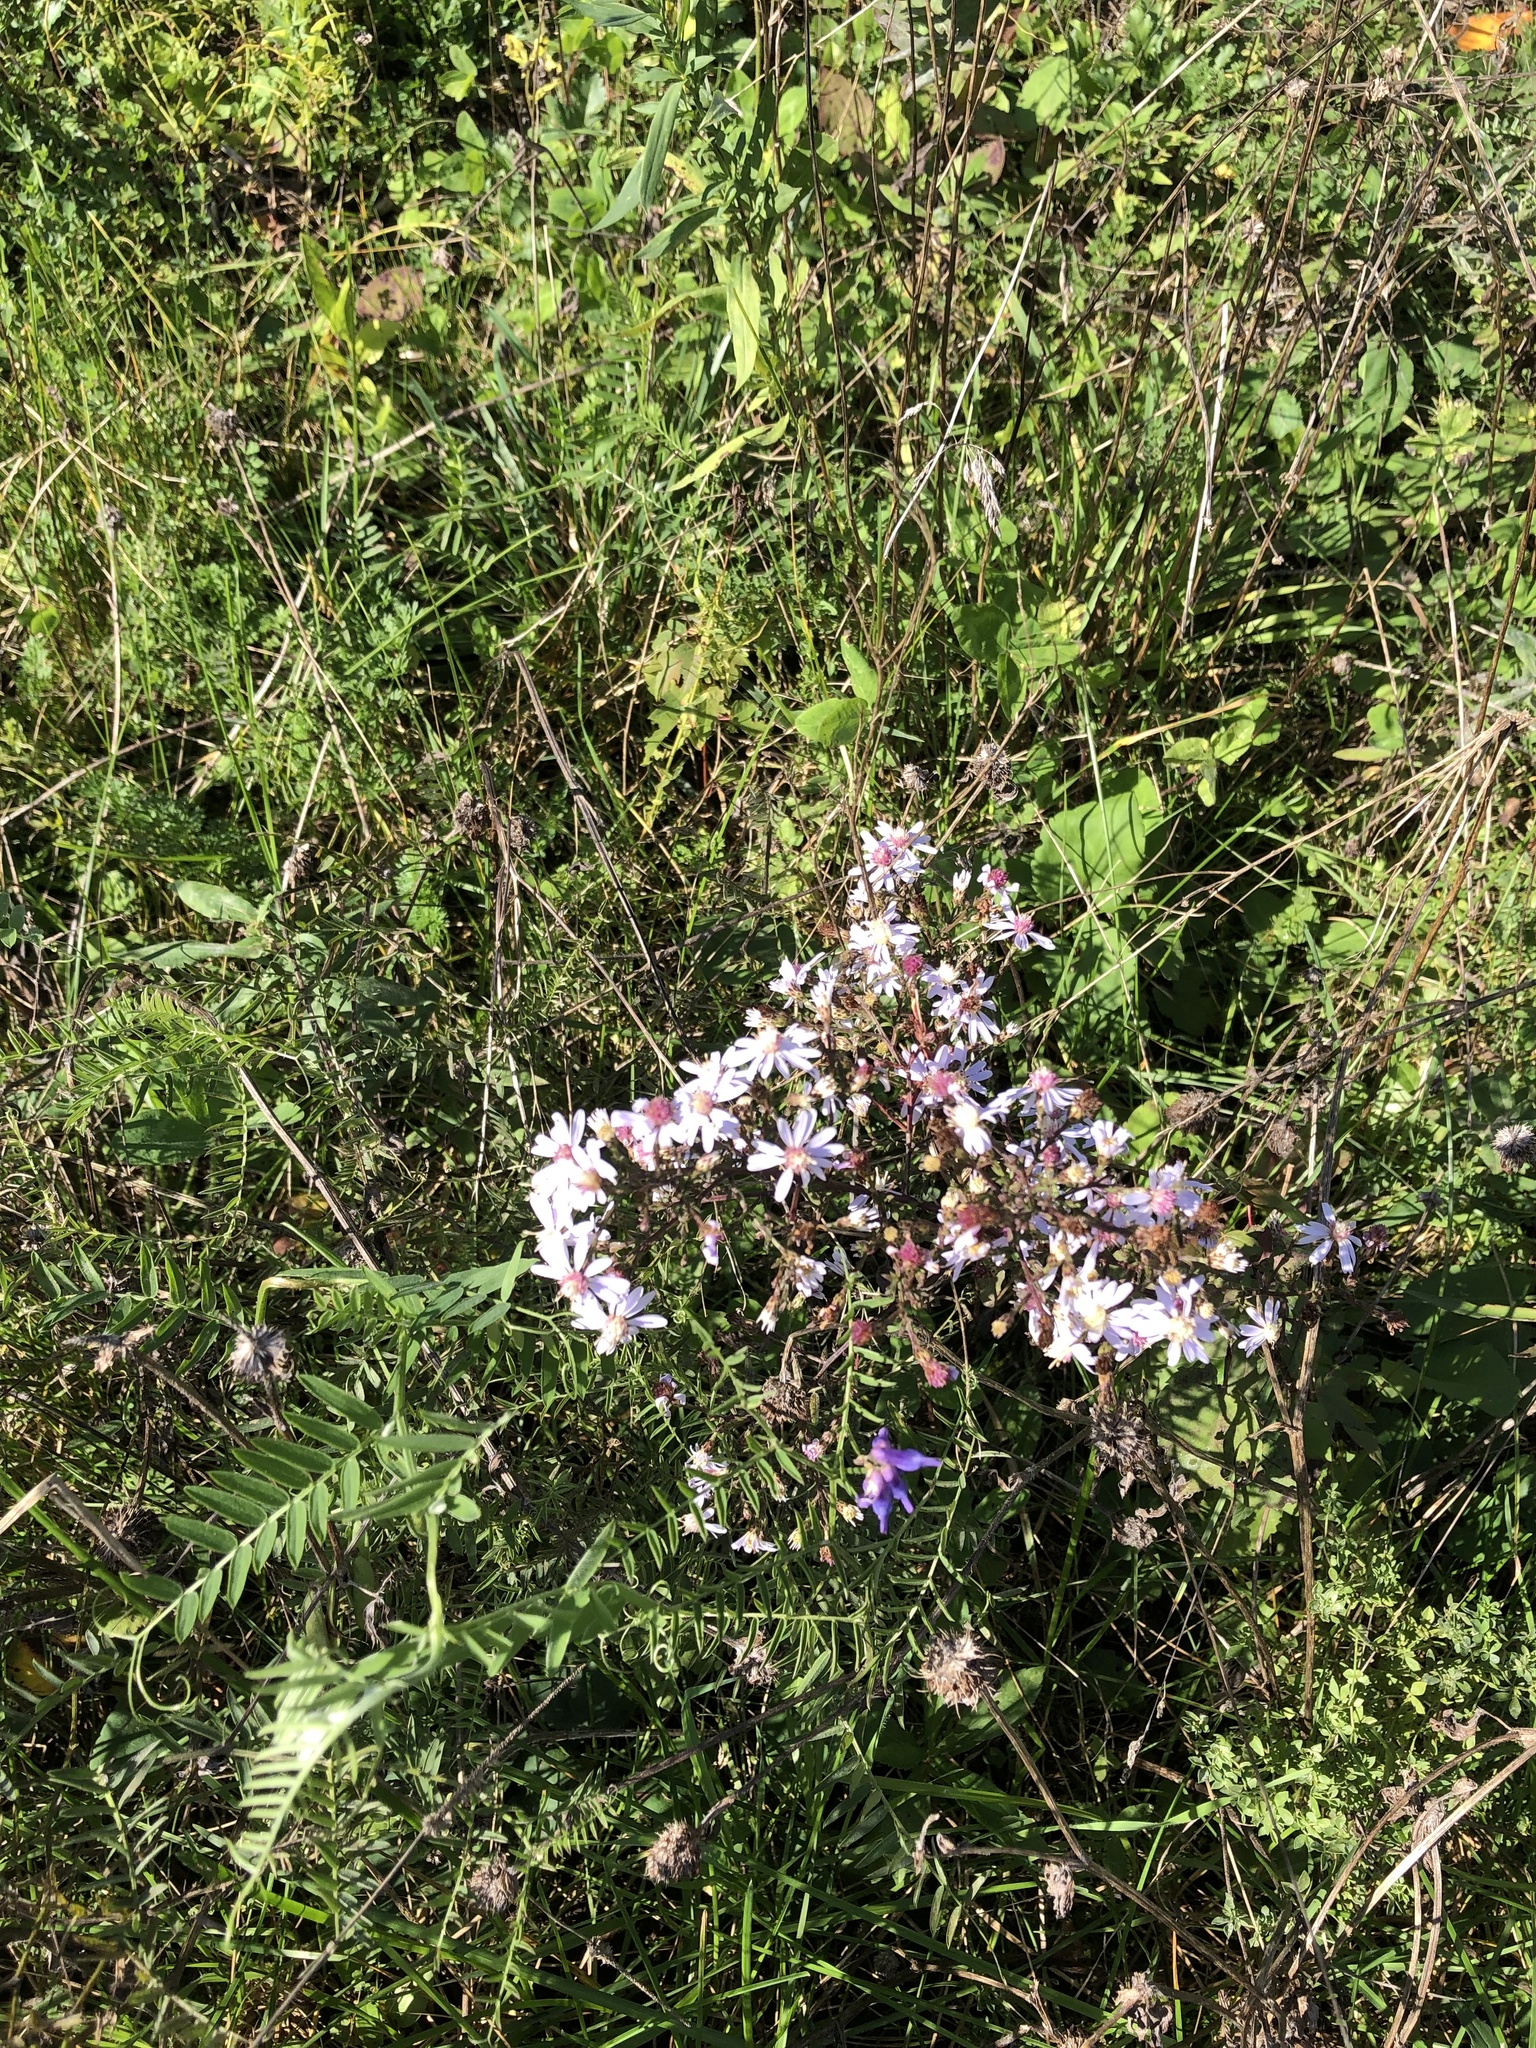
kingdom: Plantae
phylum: Tracheophyta
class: Magnoliopsida
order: Asterales
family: Asteraceae
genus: Symphyotrichum
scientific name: Symphyotrichum cordifolium
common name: Beeweed
